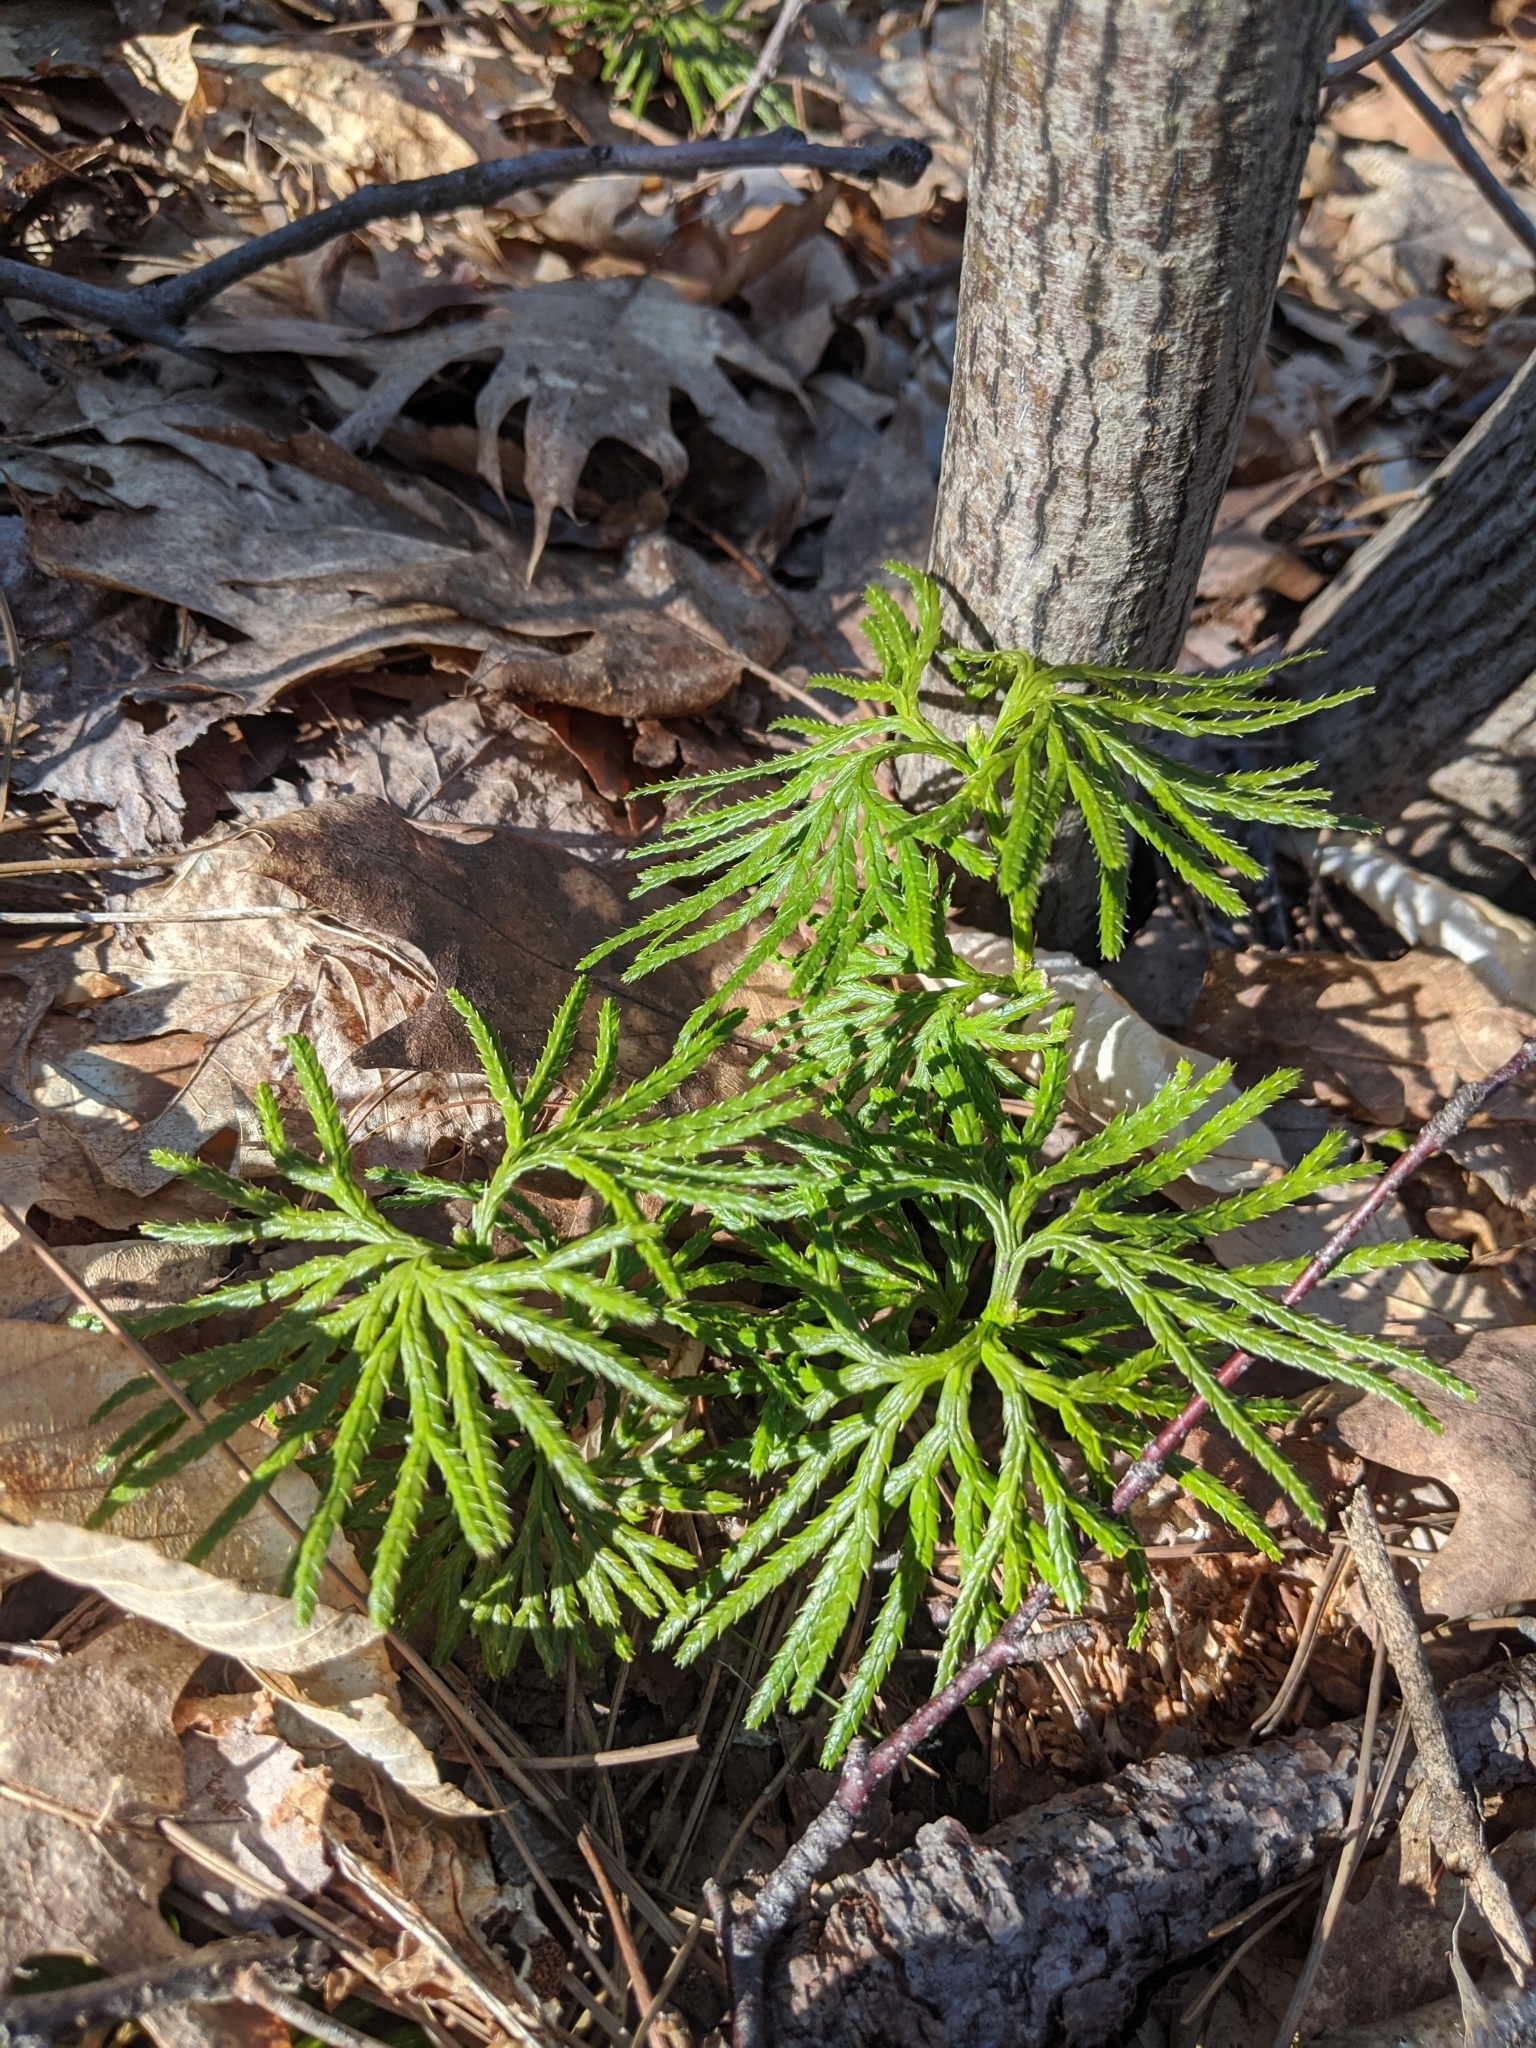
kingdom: Plantae
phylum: Tracheophyta
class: Lycopodiopsida
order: Lycopodiales
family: Lycopodiaceae
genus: Diphasiastrum
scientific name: Diphasiastrum digitatum
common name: Southern running-pine
